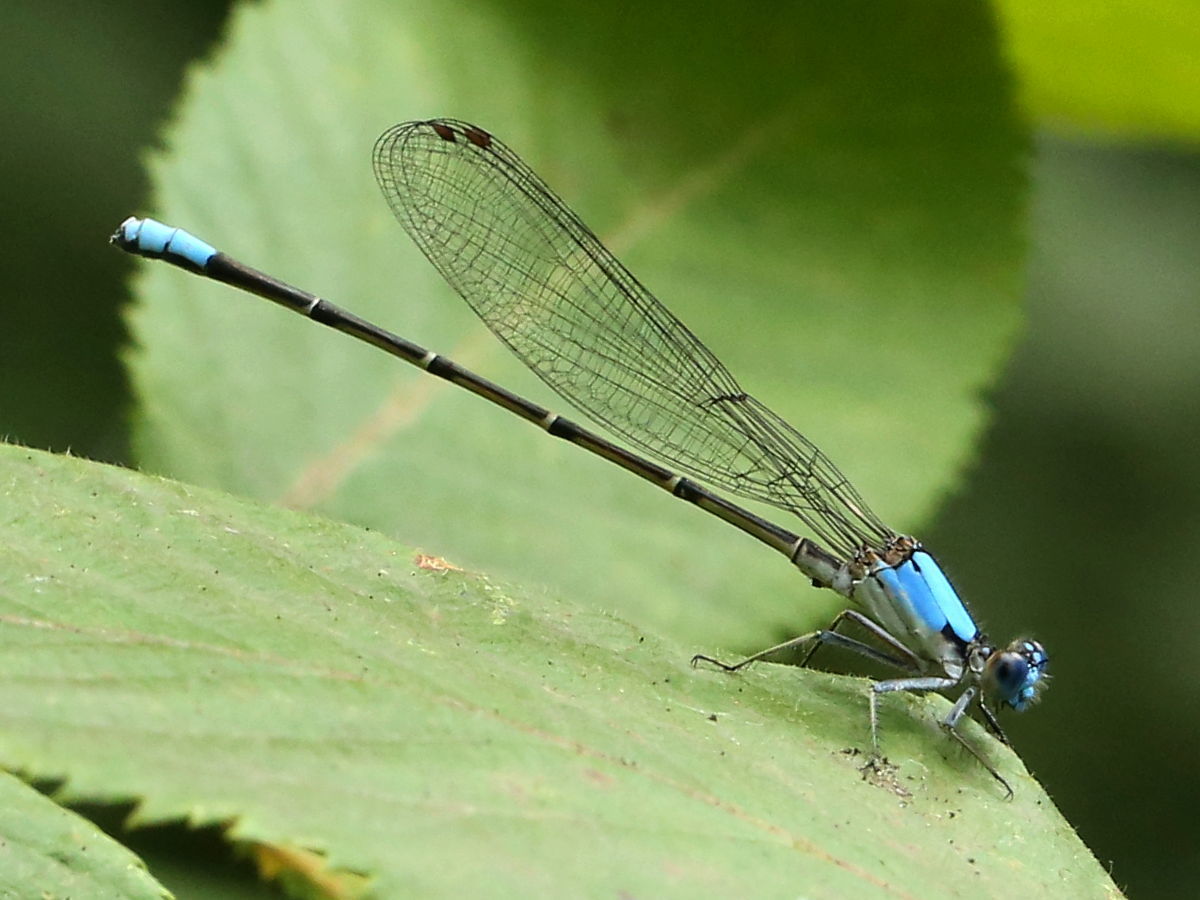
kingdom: Animalia
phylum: Arthropoda
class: Insecta
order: Odonata
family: Coenagrionidae
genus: Argia
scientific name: Argia apicalis
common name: Blue-fronted dancer
